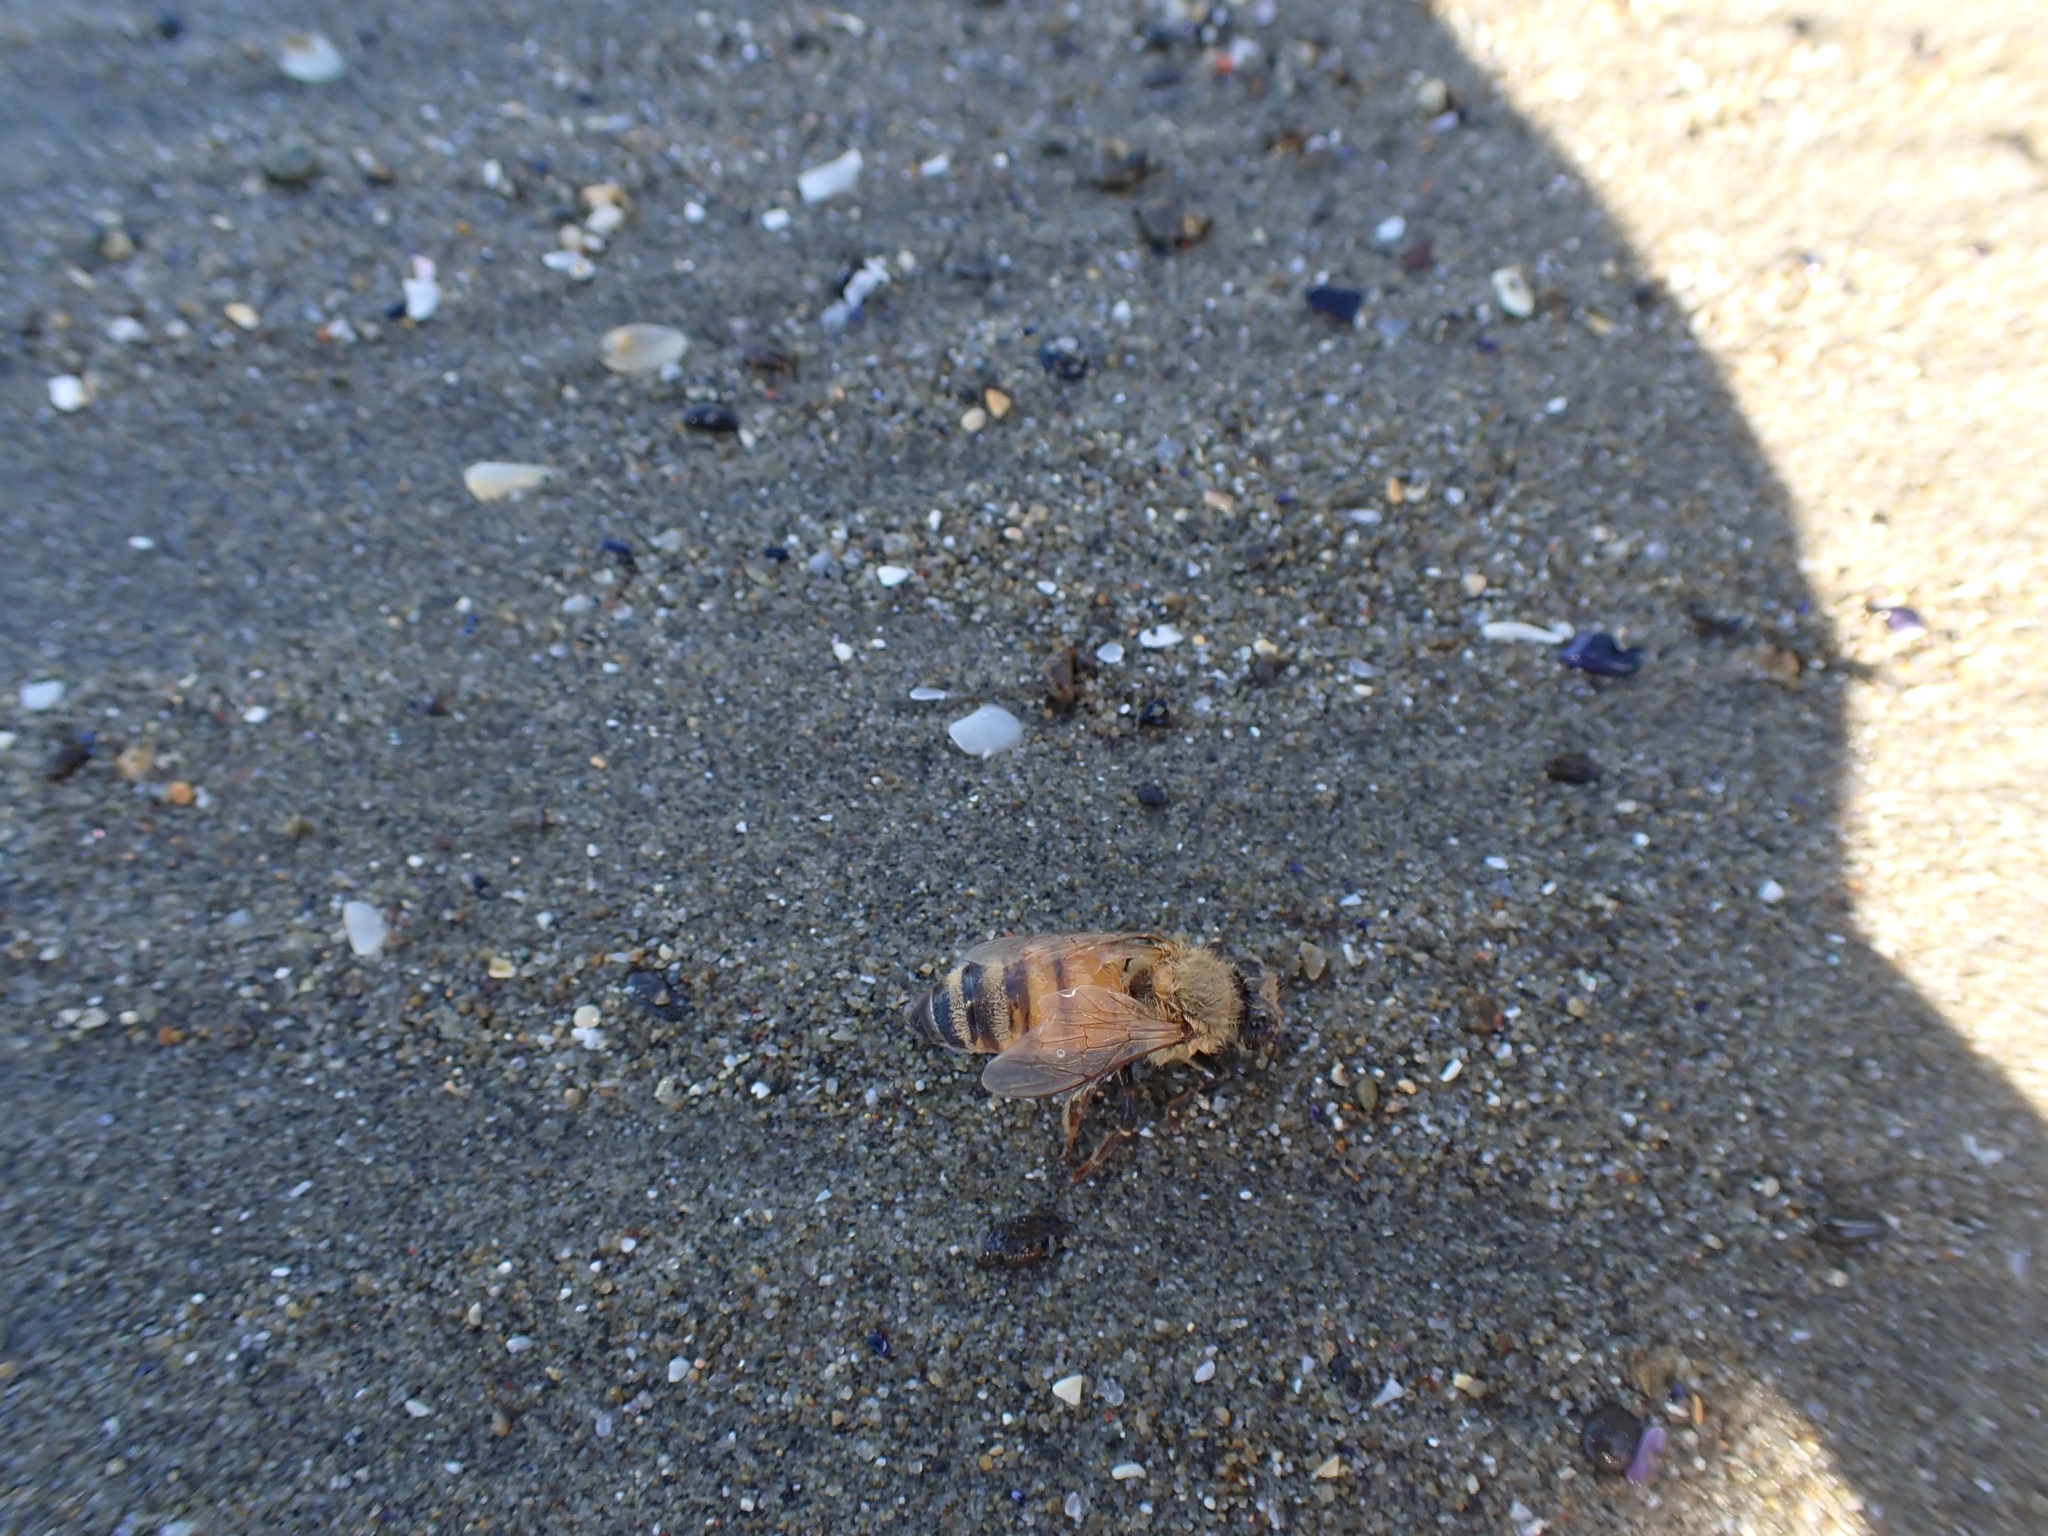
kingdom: Animalia
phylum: Arthropoda
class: Insecta
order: Hymenoptera
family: Apidae
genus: Apis
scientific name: Apis mellifera
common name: Honey bee
